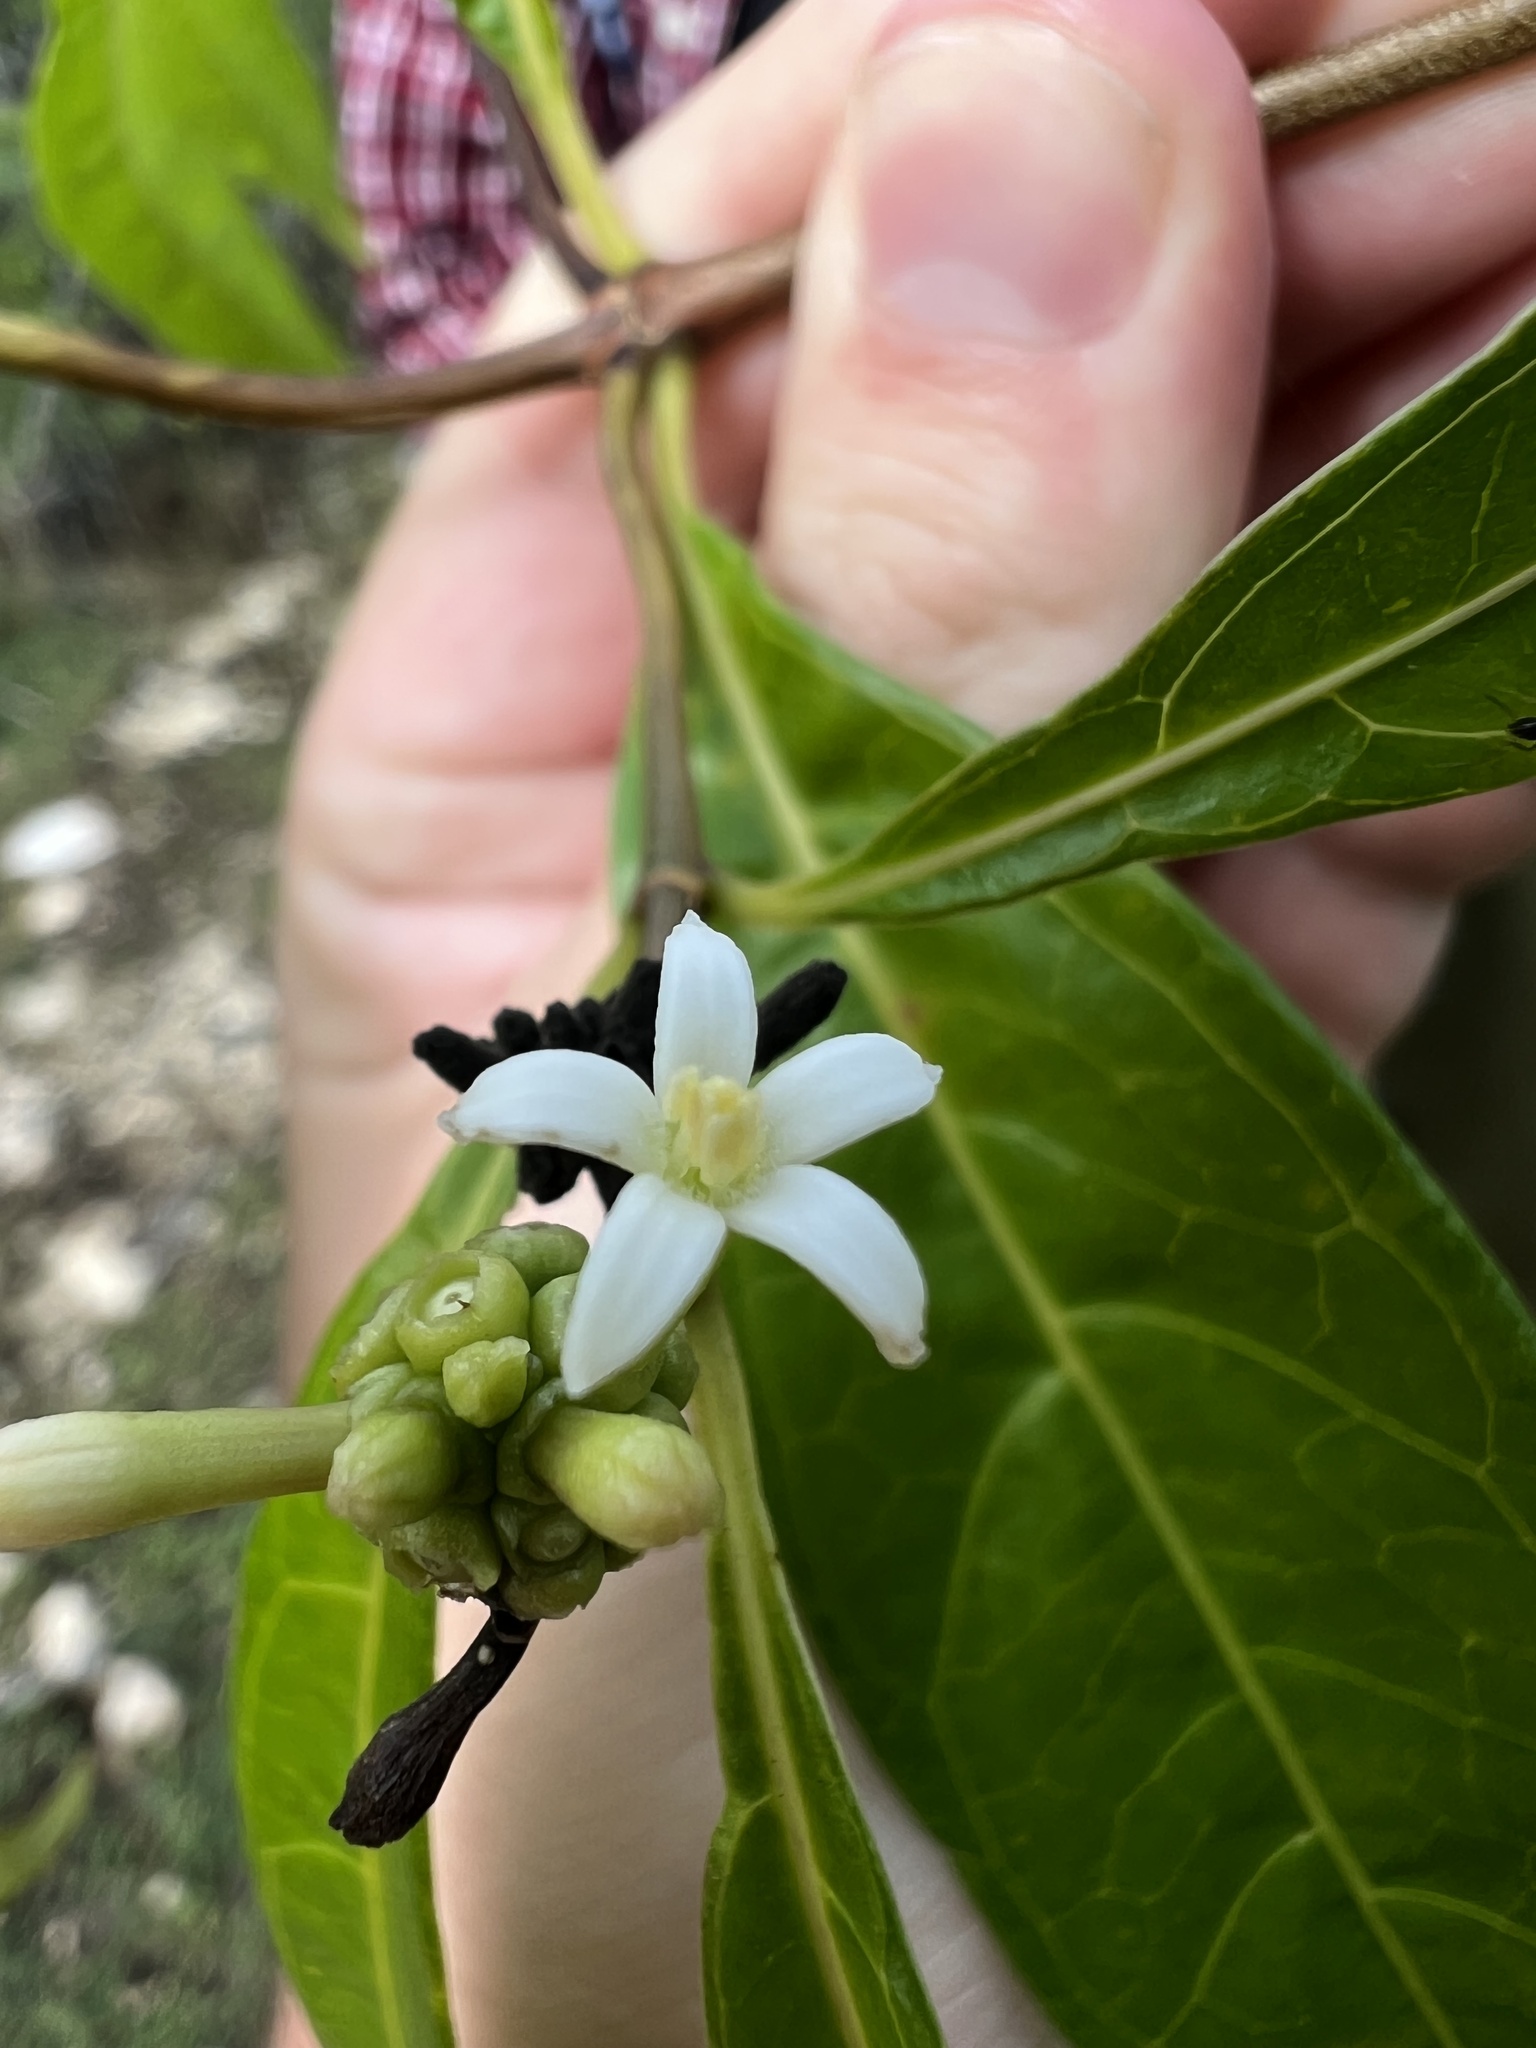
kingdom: Plantae
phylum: Tracheophyta
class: Magnoliopsida
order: Gentianales
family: Rubiaceae
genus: Morinda
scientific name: Morinda royoc
